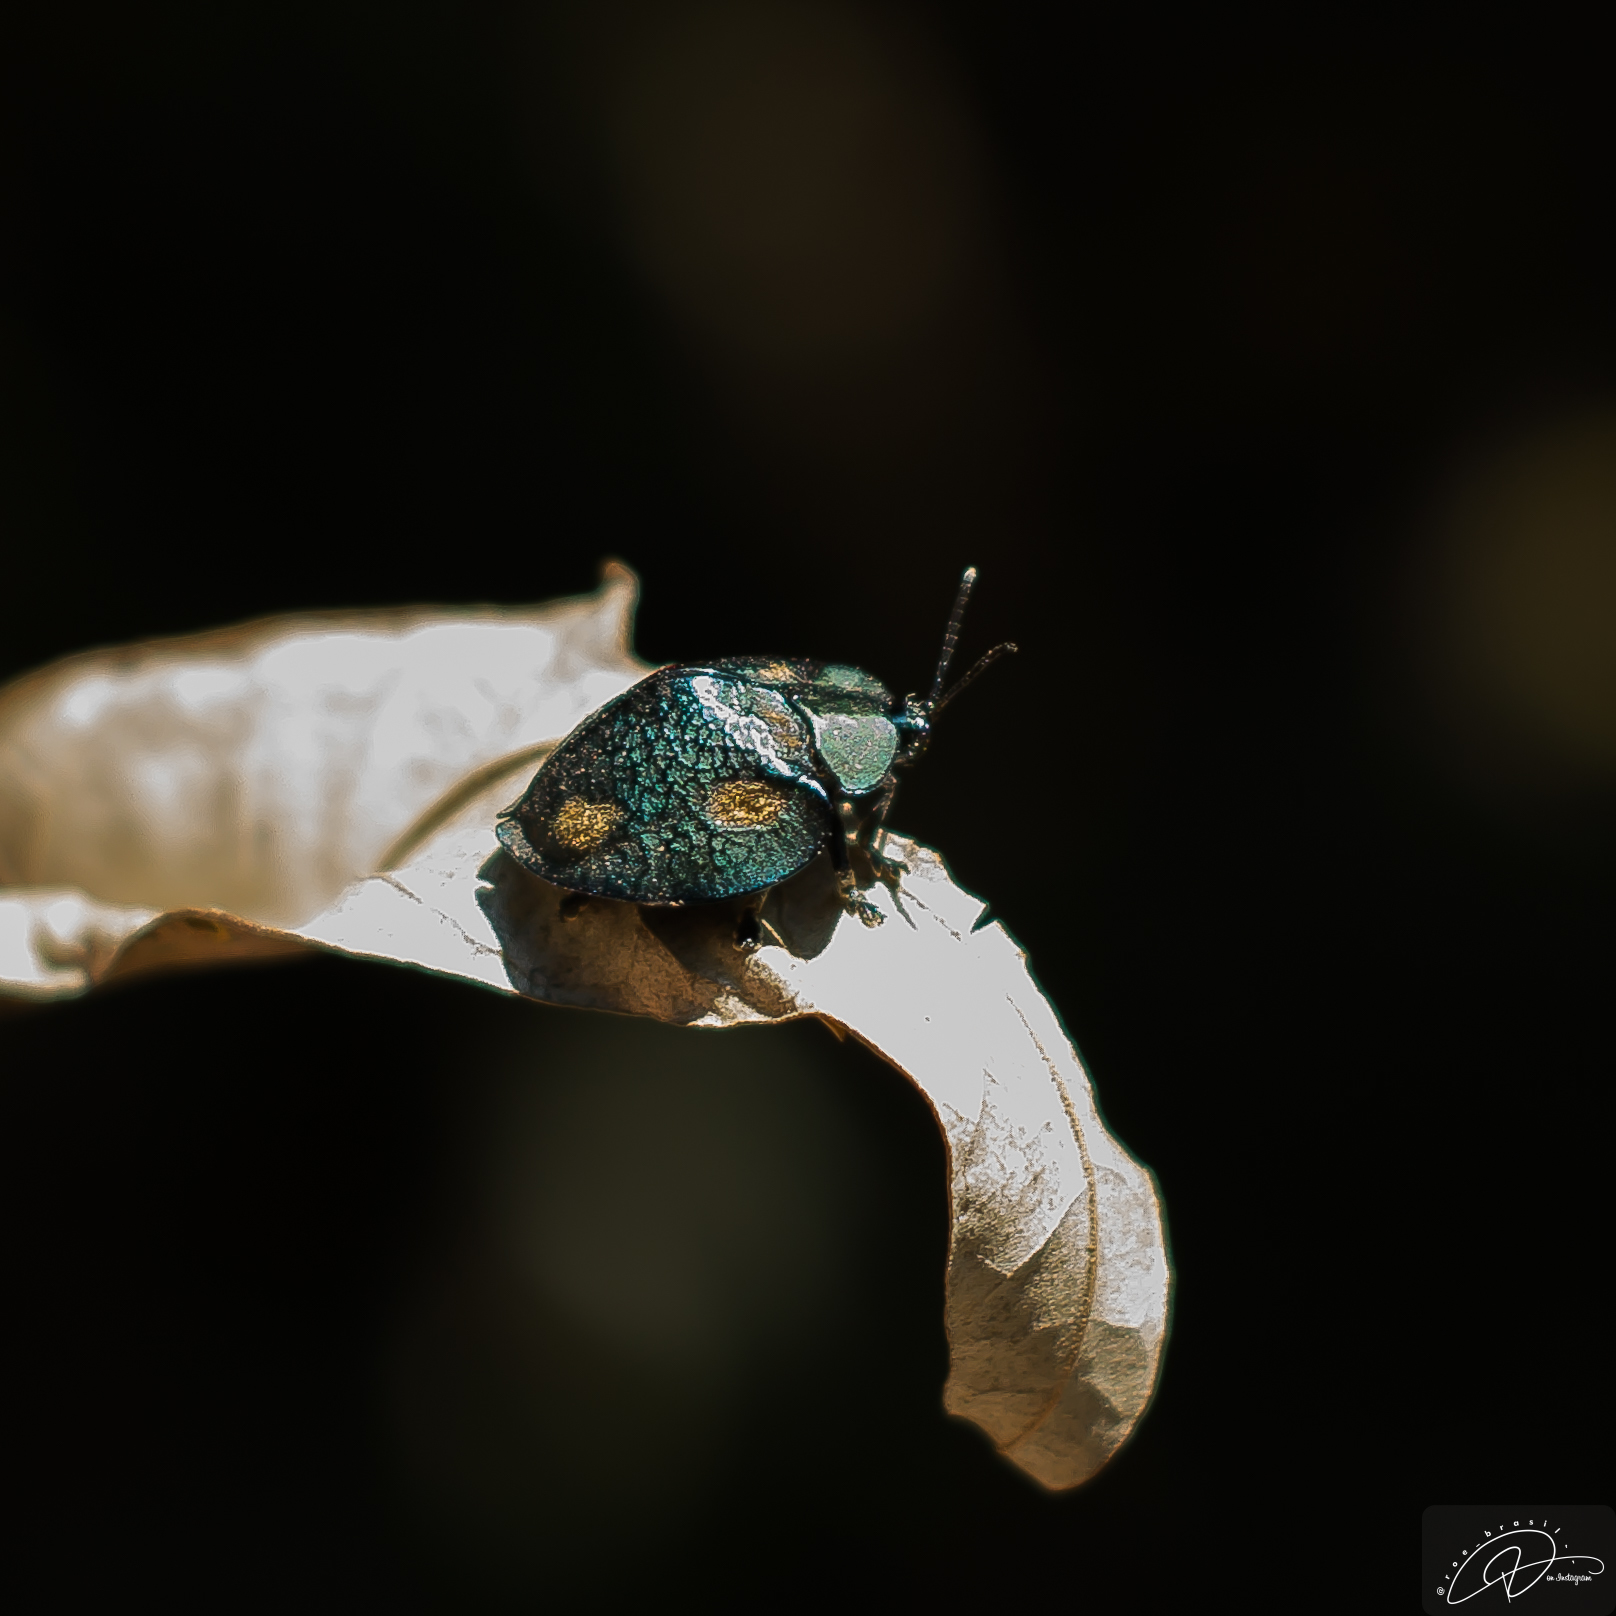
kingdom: Animalia
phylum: Arthropoda
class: Insecta
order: Coleoptera
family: Chrysomelidae
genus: Stolas
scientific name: Stolas areolata
